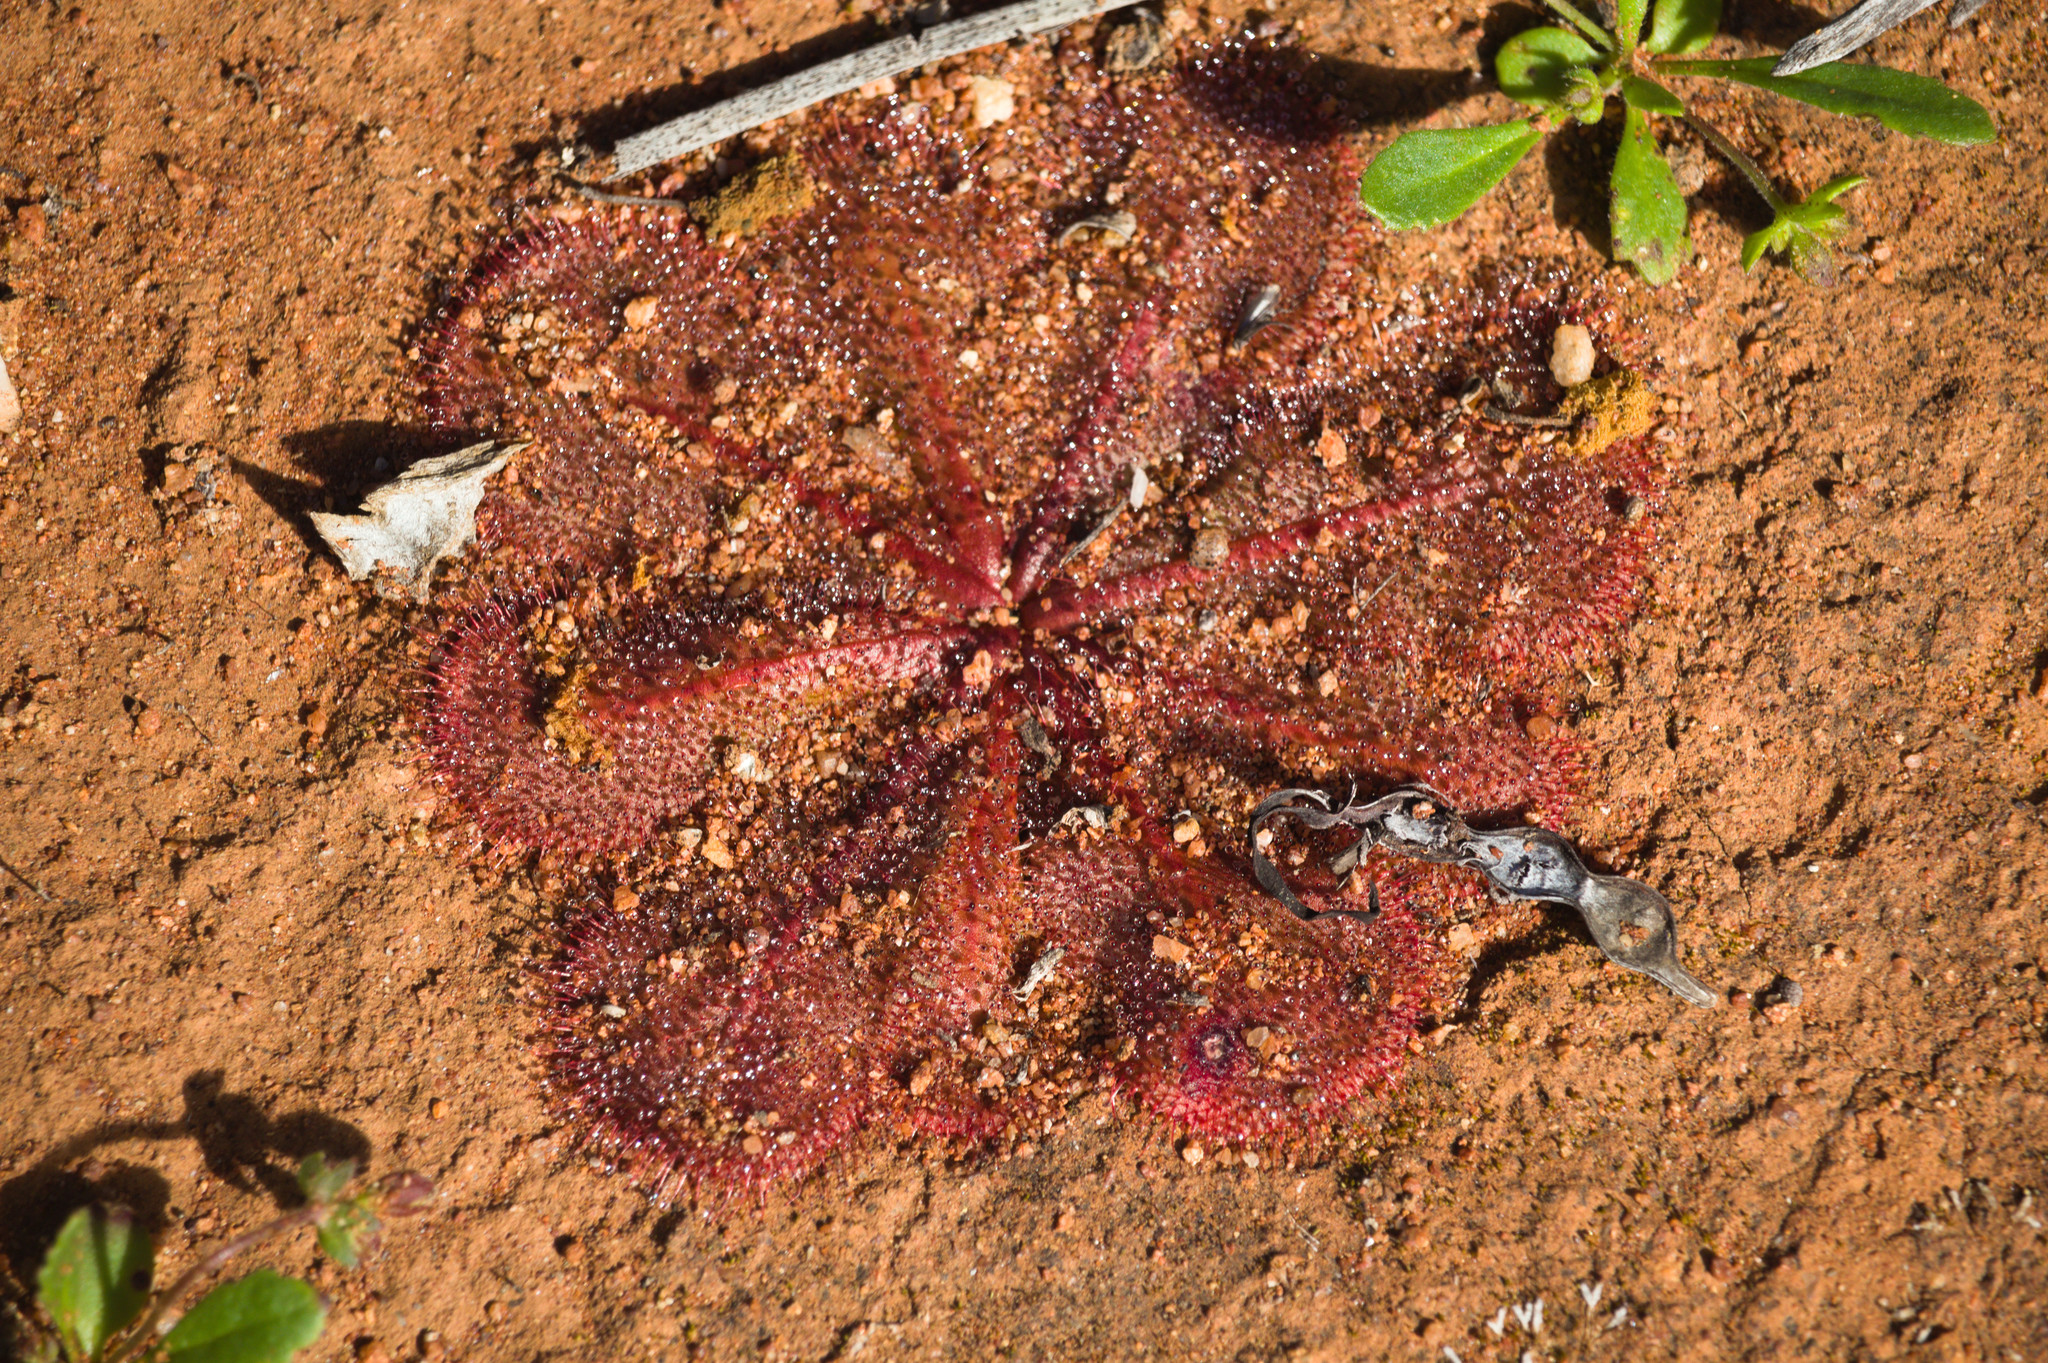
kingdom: Plantae
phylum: Tracheophyta
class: Magnoliopsida
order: Caryophyllales
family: Droseraceae
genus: Drosera
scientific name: Drosera bulbosa
